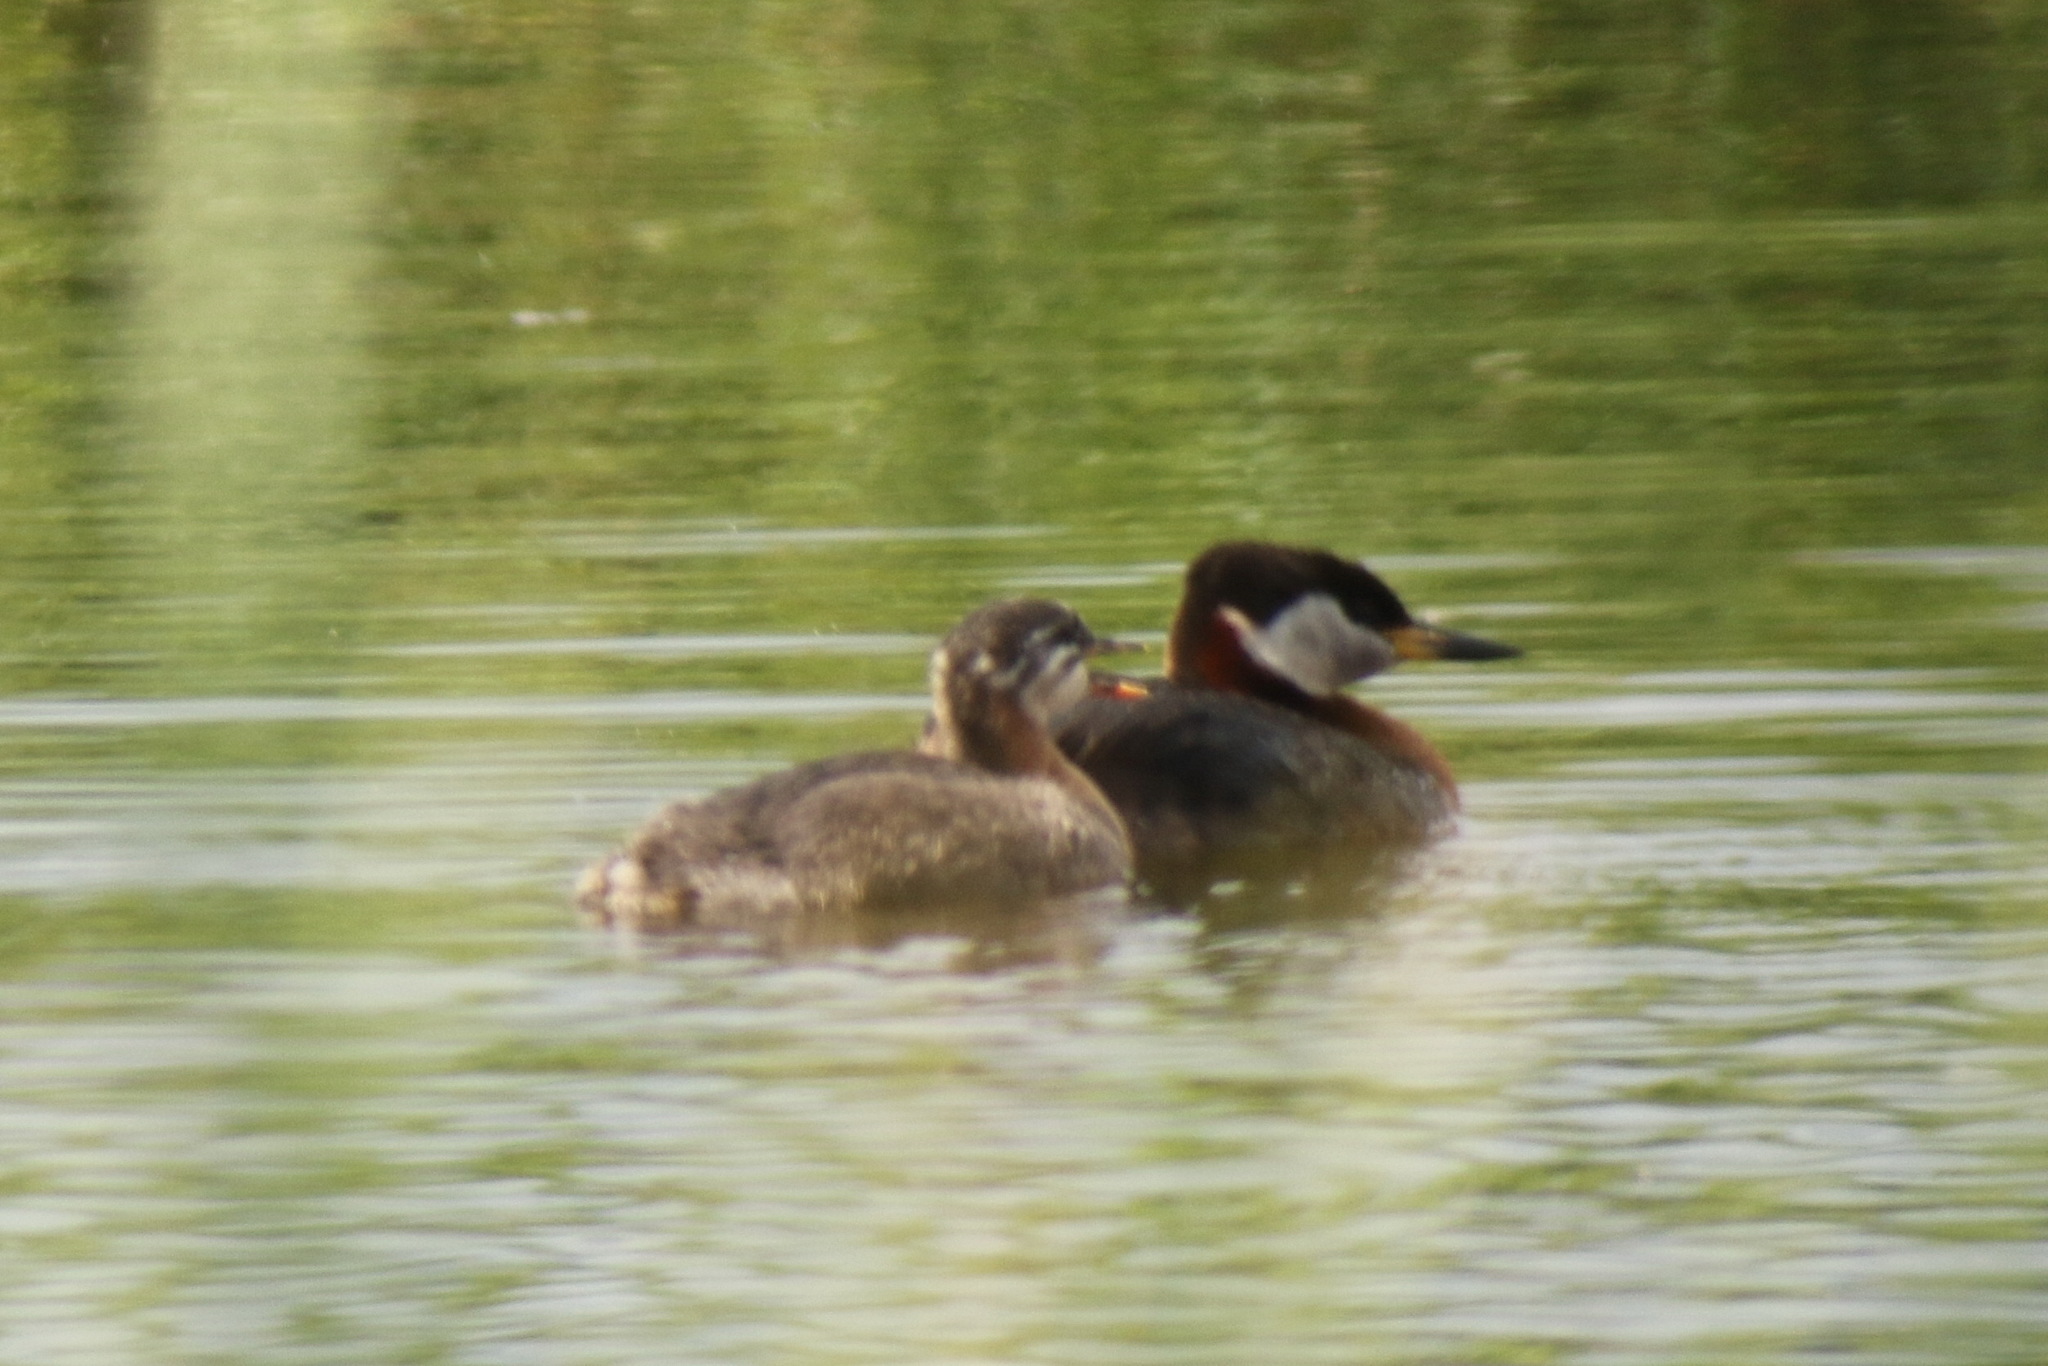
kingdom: Animalia
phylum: Chordata
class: Aves
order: Podicipediformes
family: Podicipedidae
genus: Podiceps
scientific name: Podiceps grisegena
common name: Red-necked grebe
